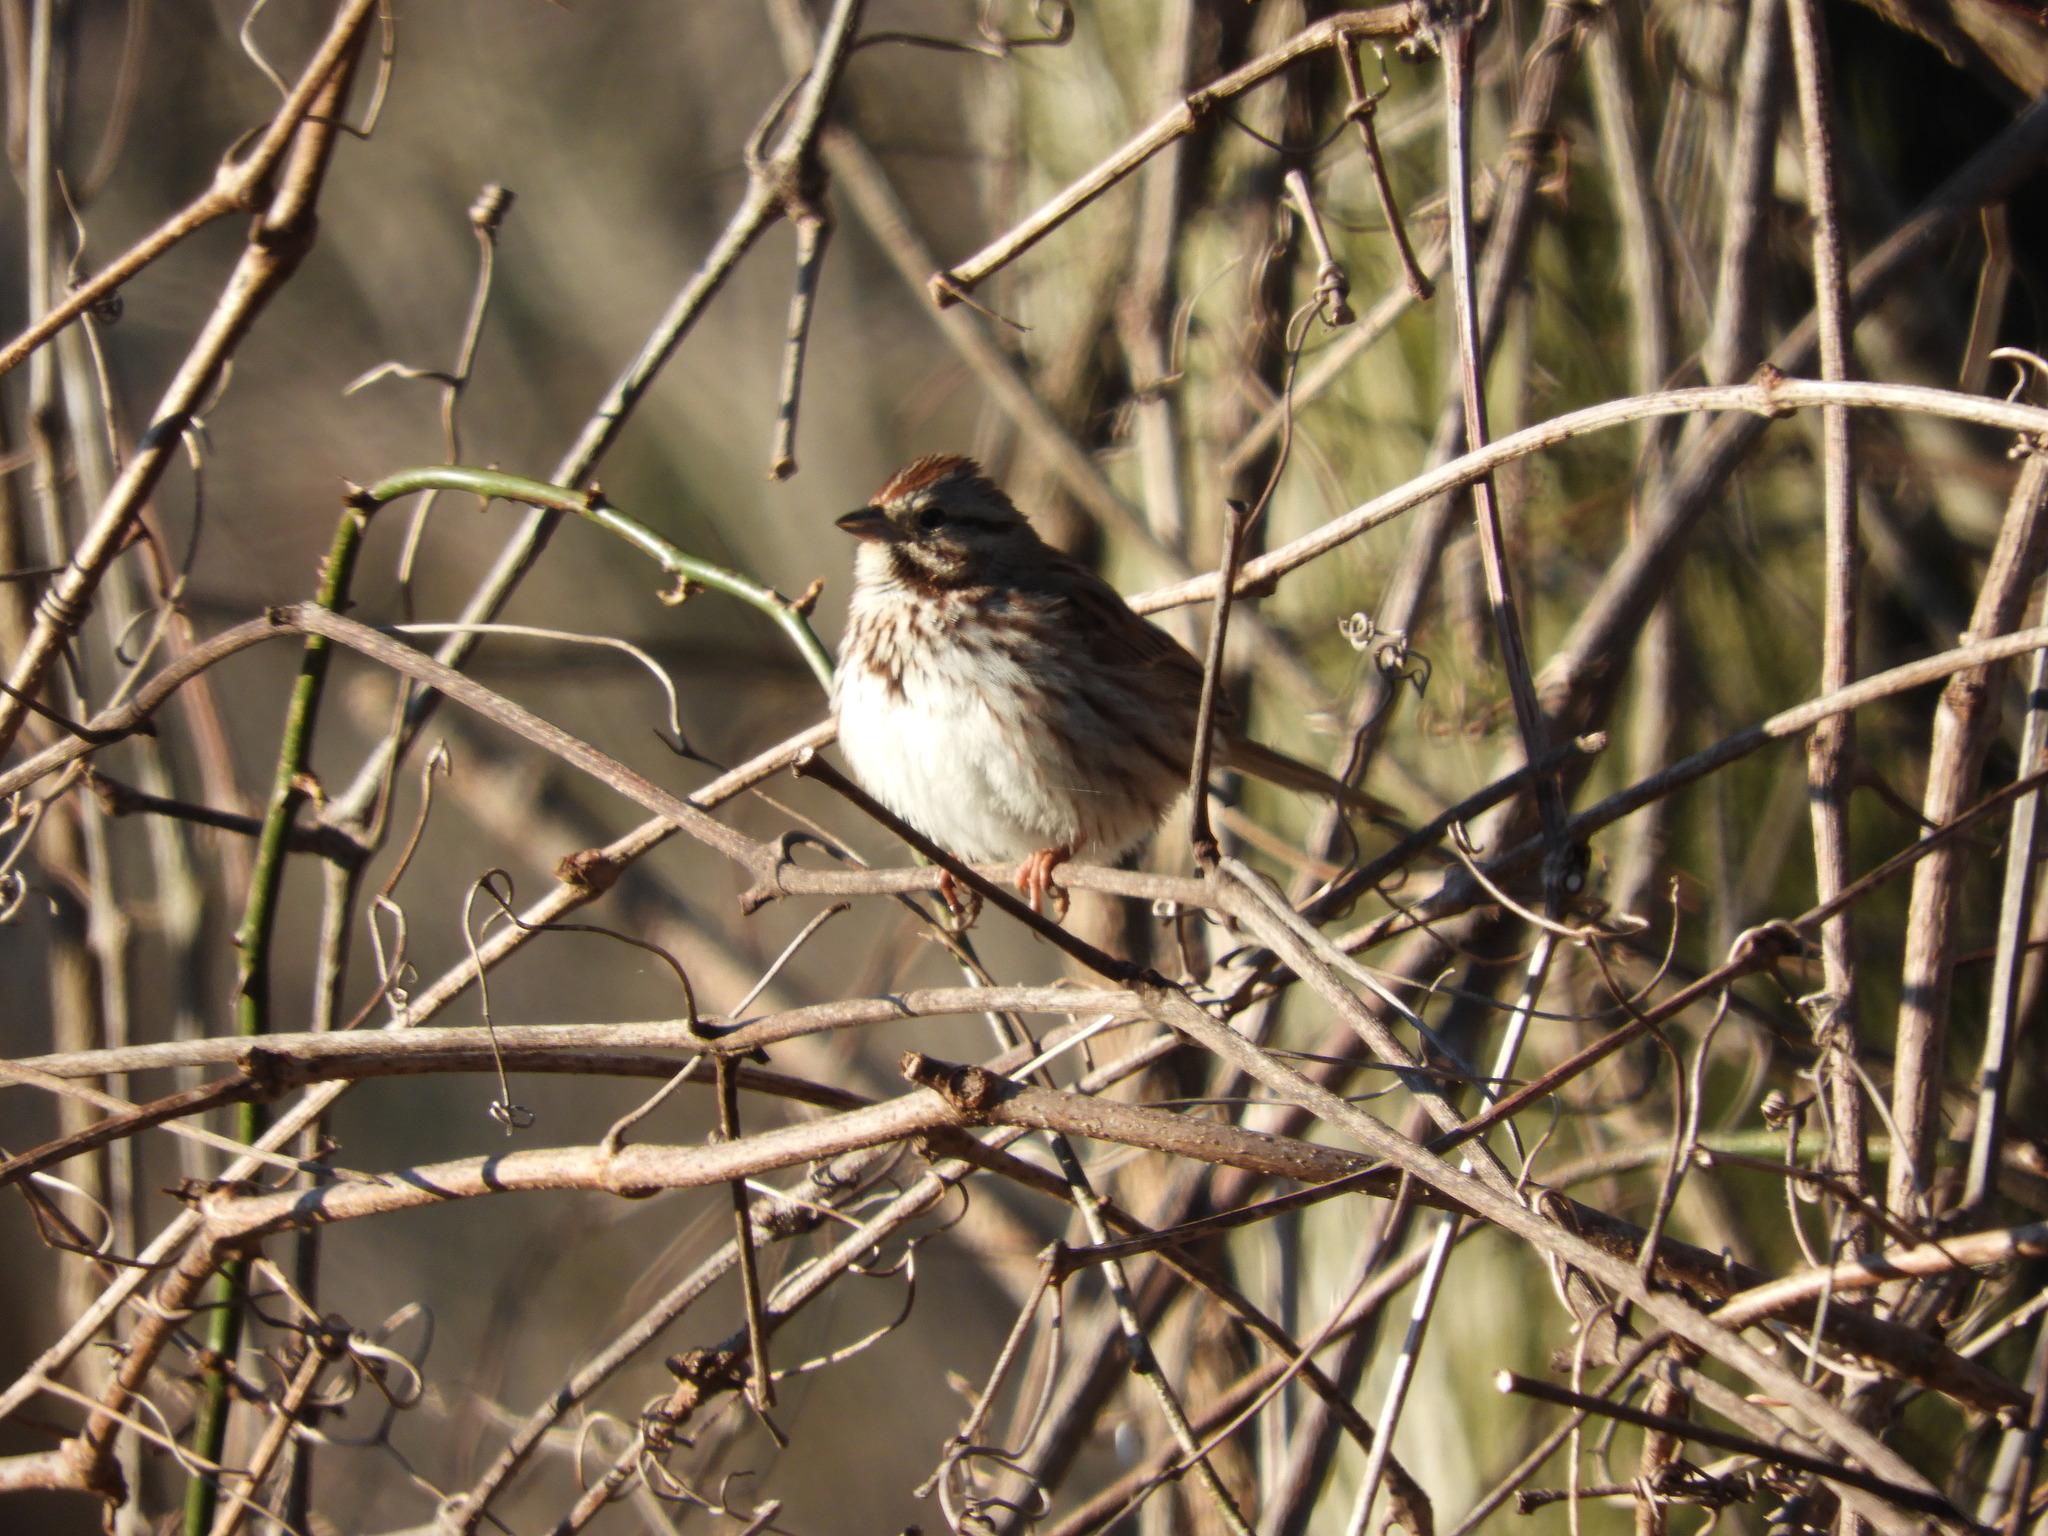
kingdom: Animalia
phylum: Chordata
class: Aves
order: Passeriformes
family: Passerellidae
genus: Melospiza
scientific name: Melospiza melodia
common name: Song sparrow
